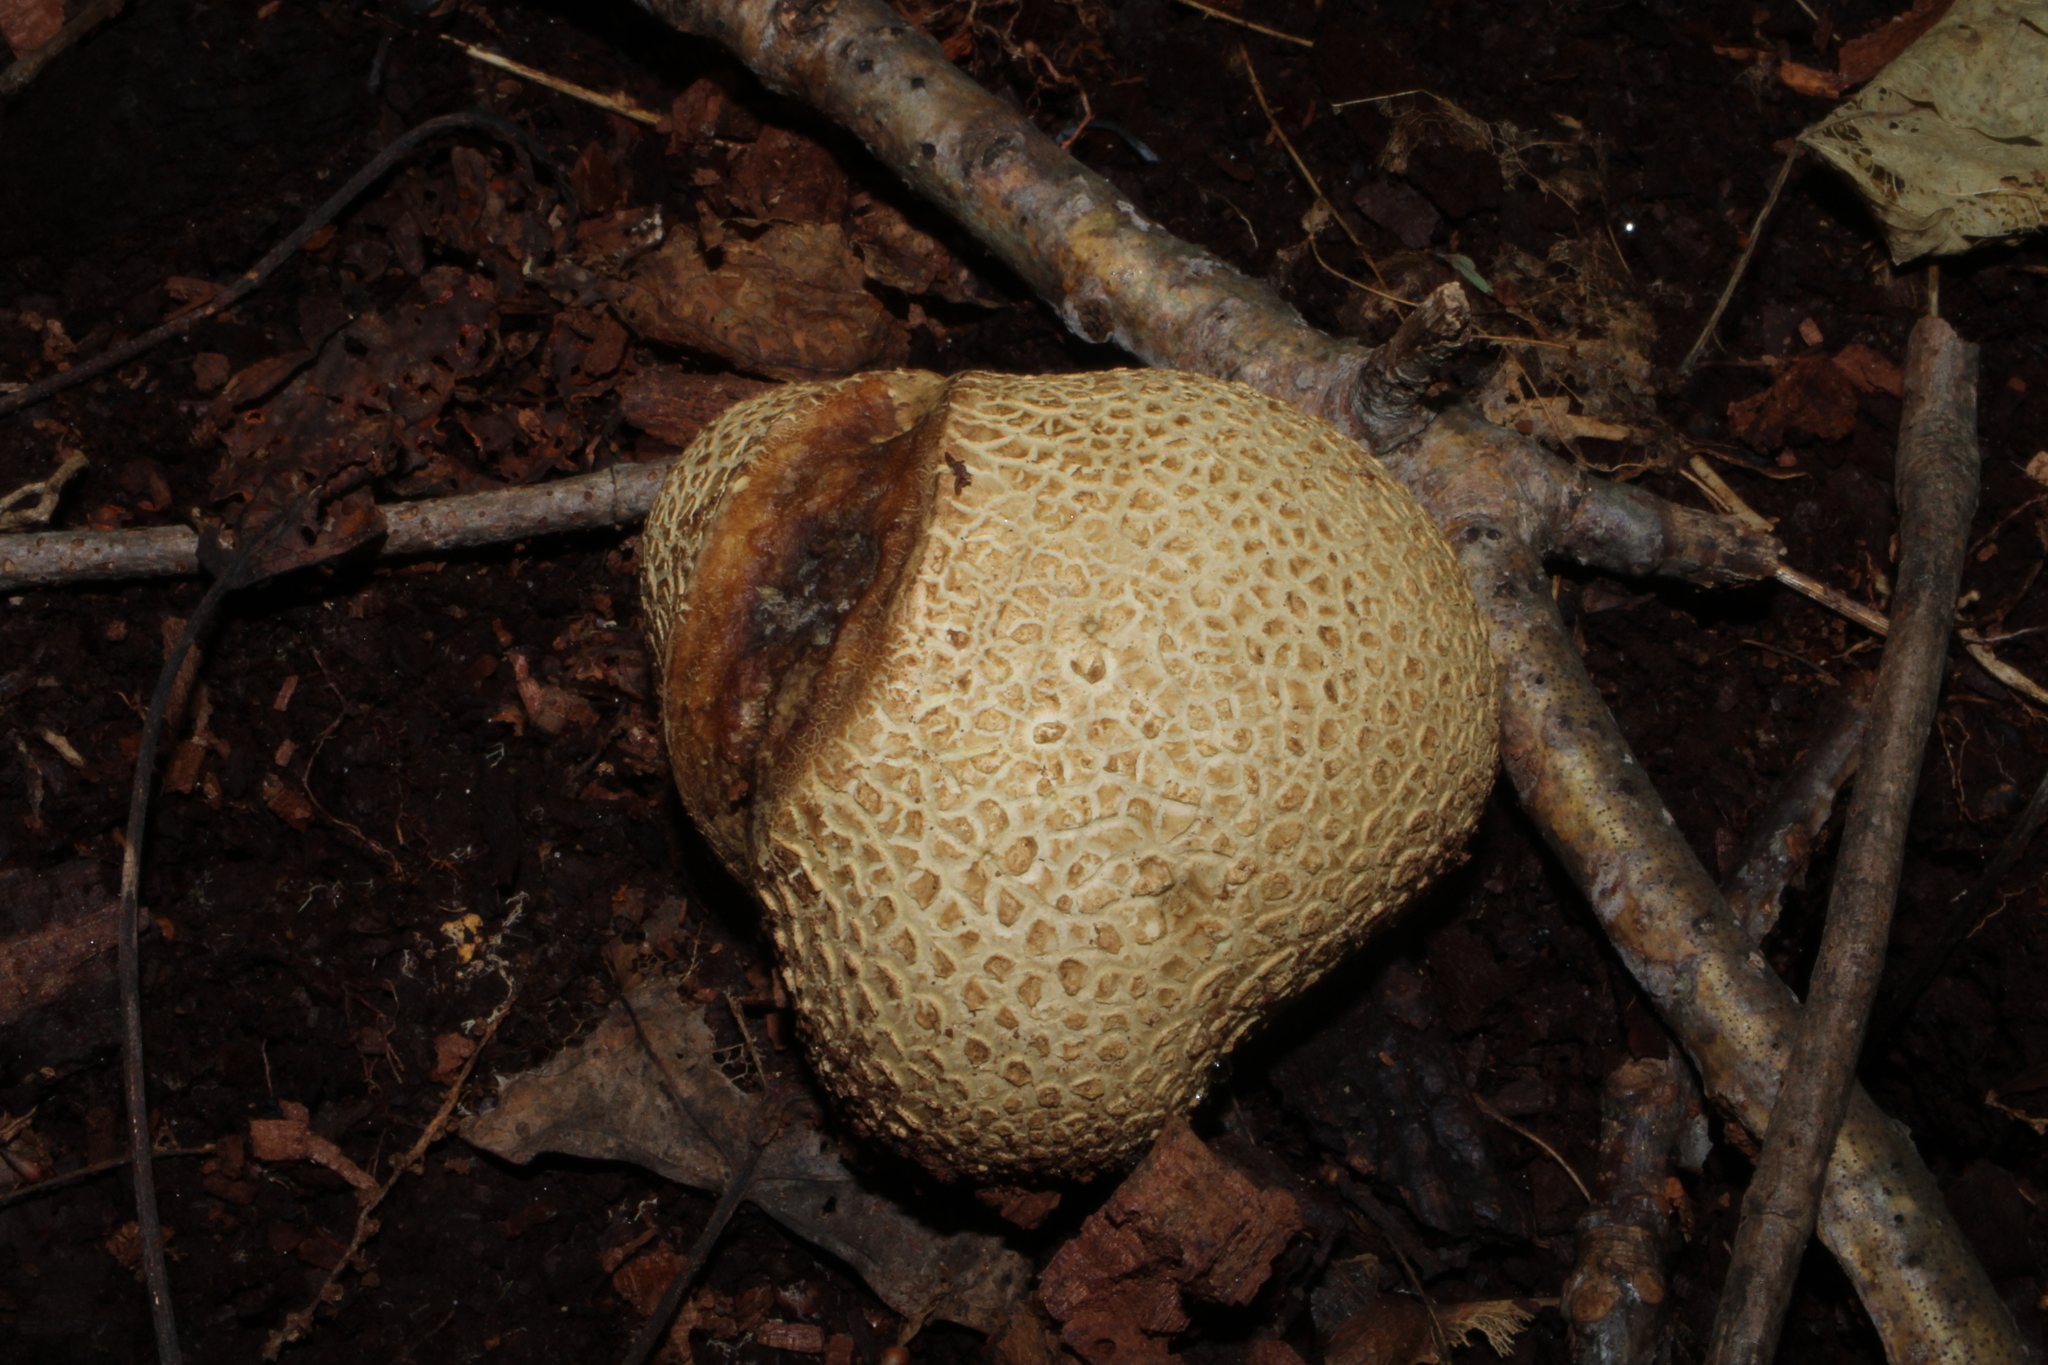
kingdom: Fungi
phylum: Basidiomycota
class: Agaricomycetes
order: Boletales
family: Sclerodermataceae
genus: Scleroderma
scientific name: Scleroderma citrinum
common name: Common earthball
